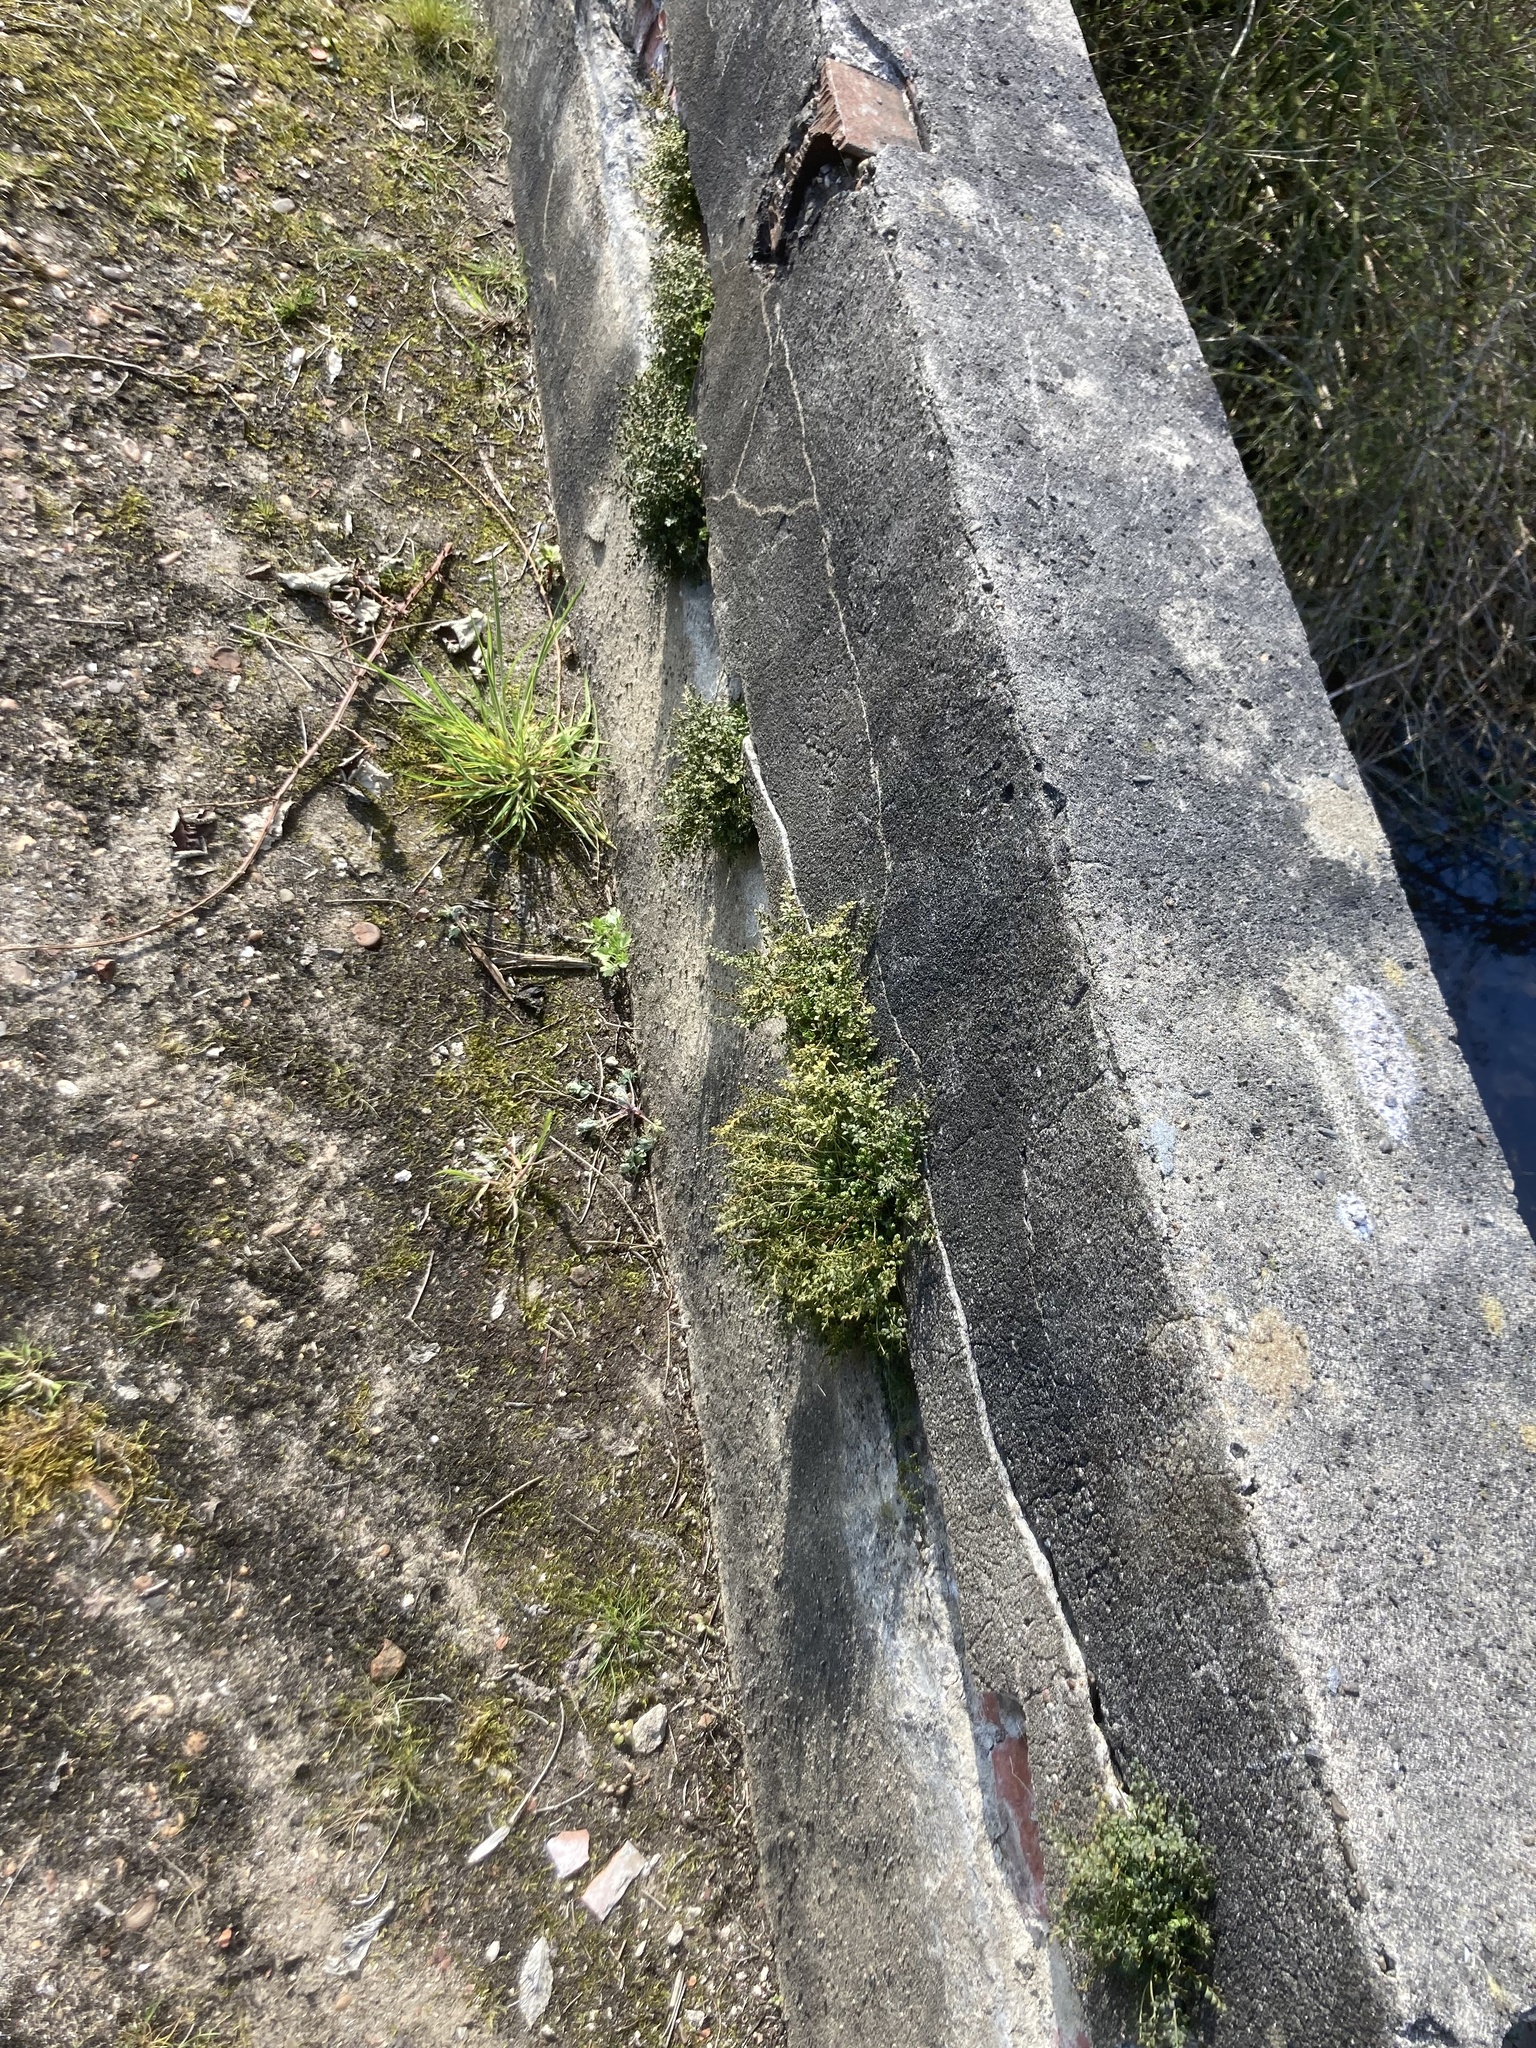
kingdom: Plantae
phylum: Tracheophyta
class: Polypodiopsida
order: Polypodiales
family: Aspleniaceae
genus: Asplenium
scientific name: Asplenium ruta-muraria
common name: Wall-rue
